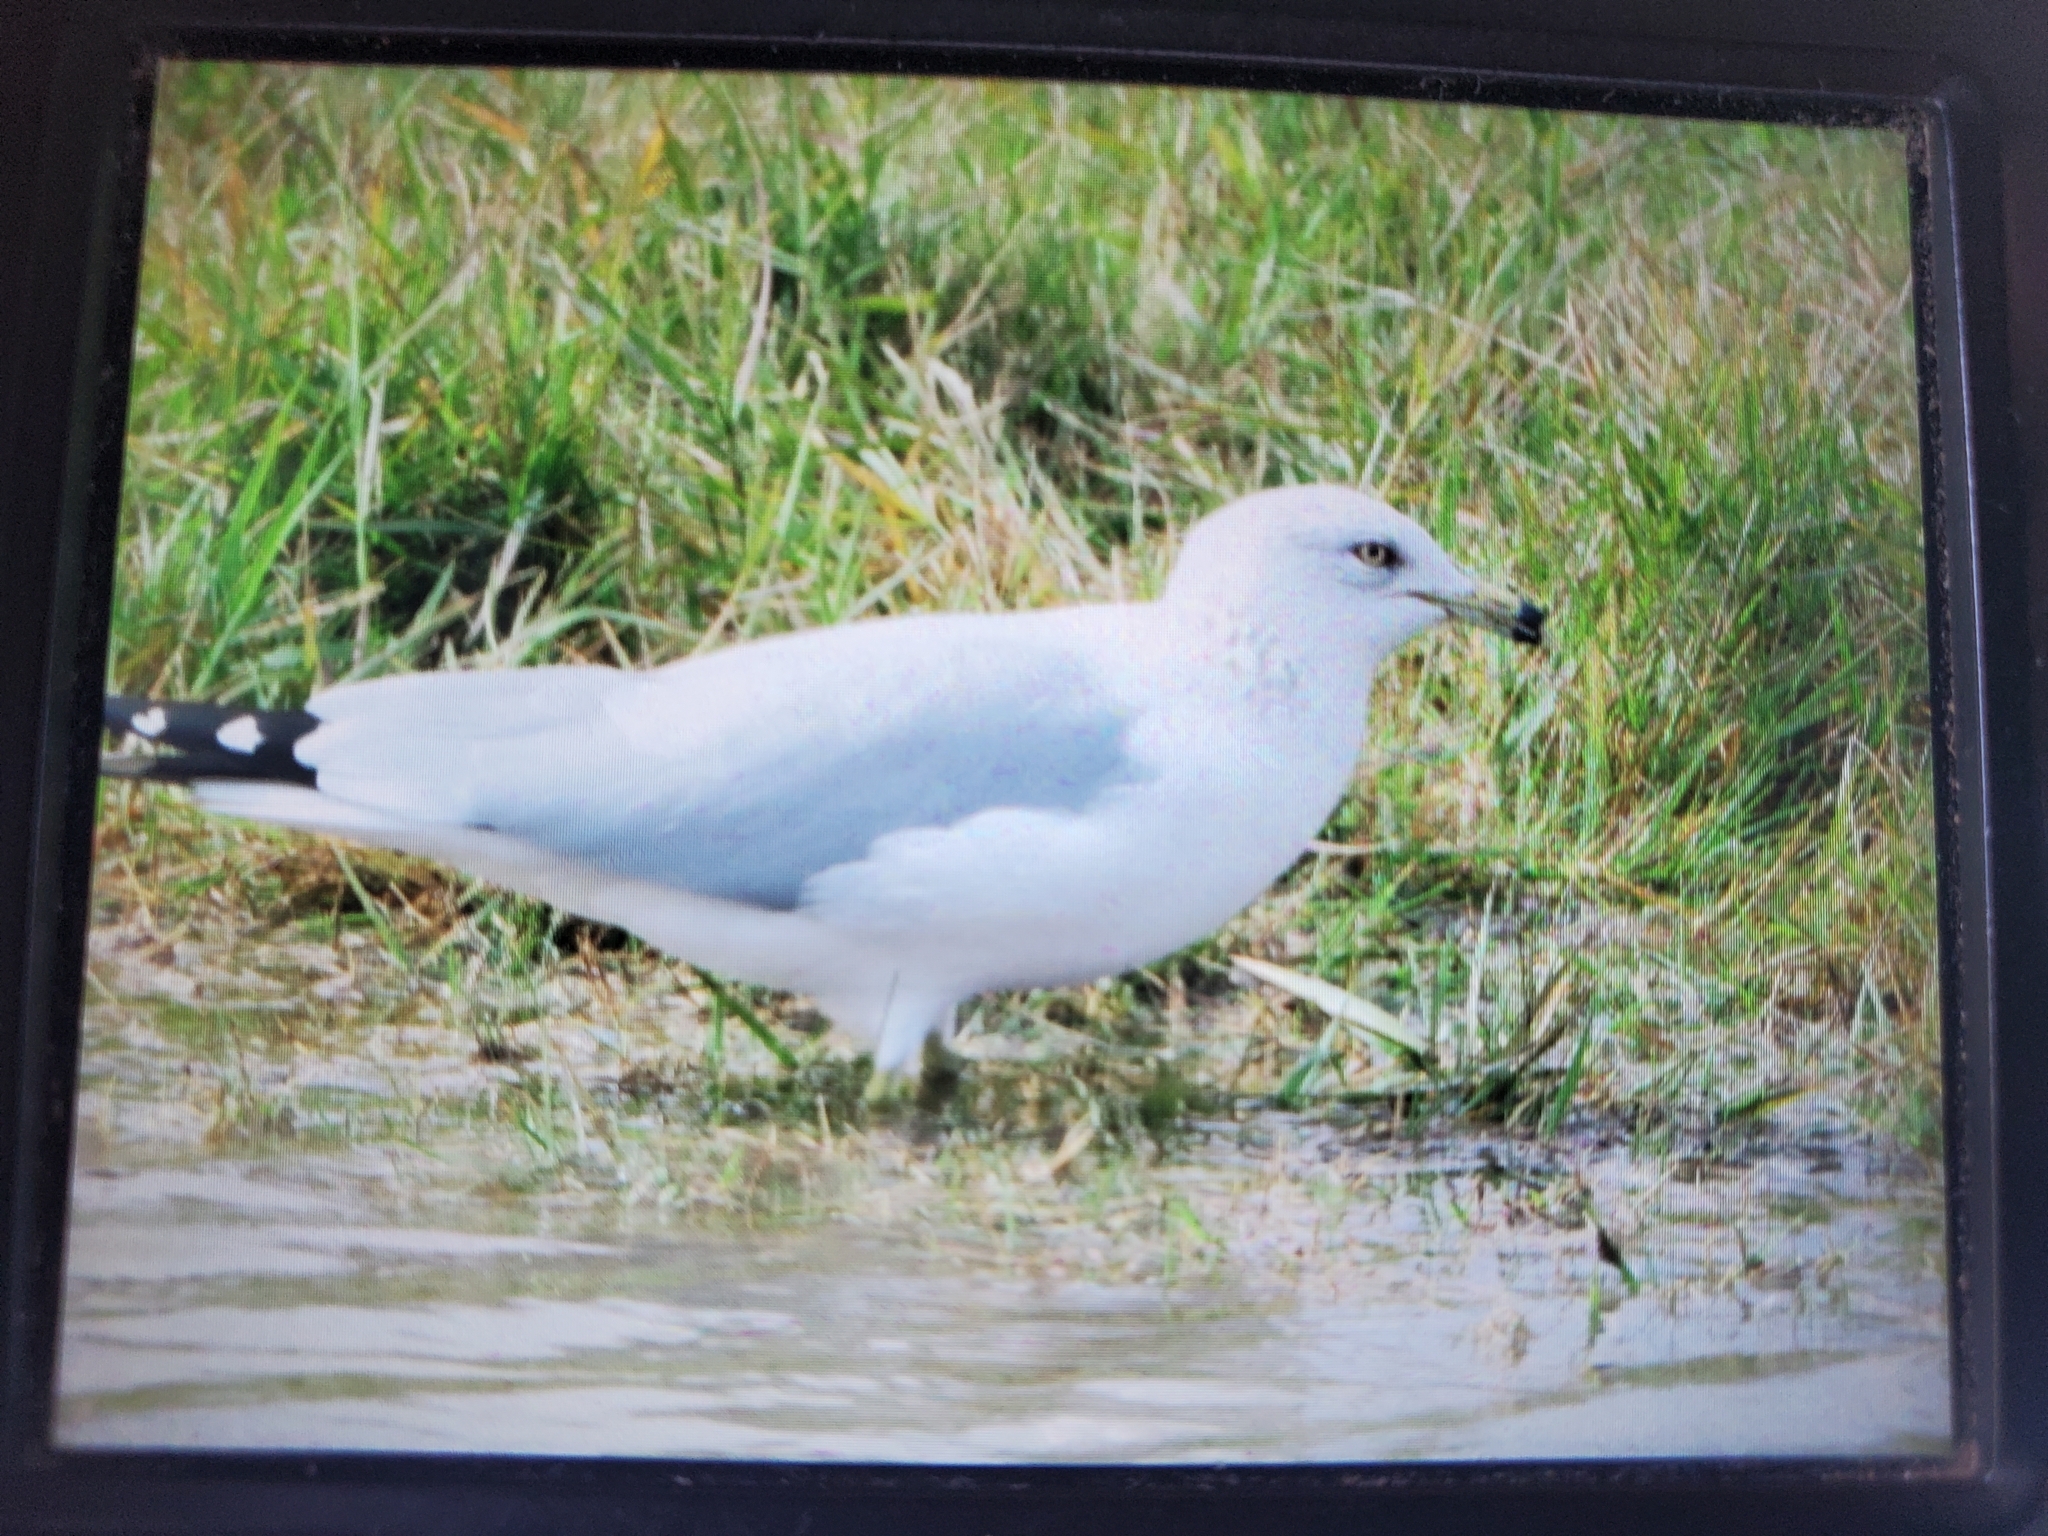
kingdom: Animalia
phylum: Chordata
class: Aves
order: Charadriiformes
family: Laridae
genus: Larus
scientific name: Larus delawarensis
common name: Ring-billed gull
